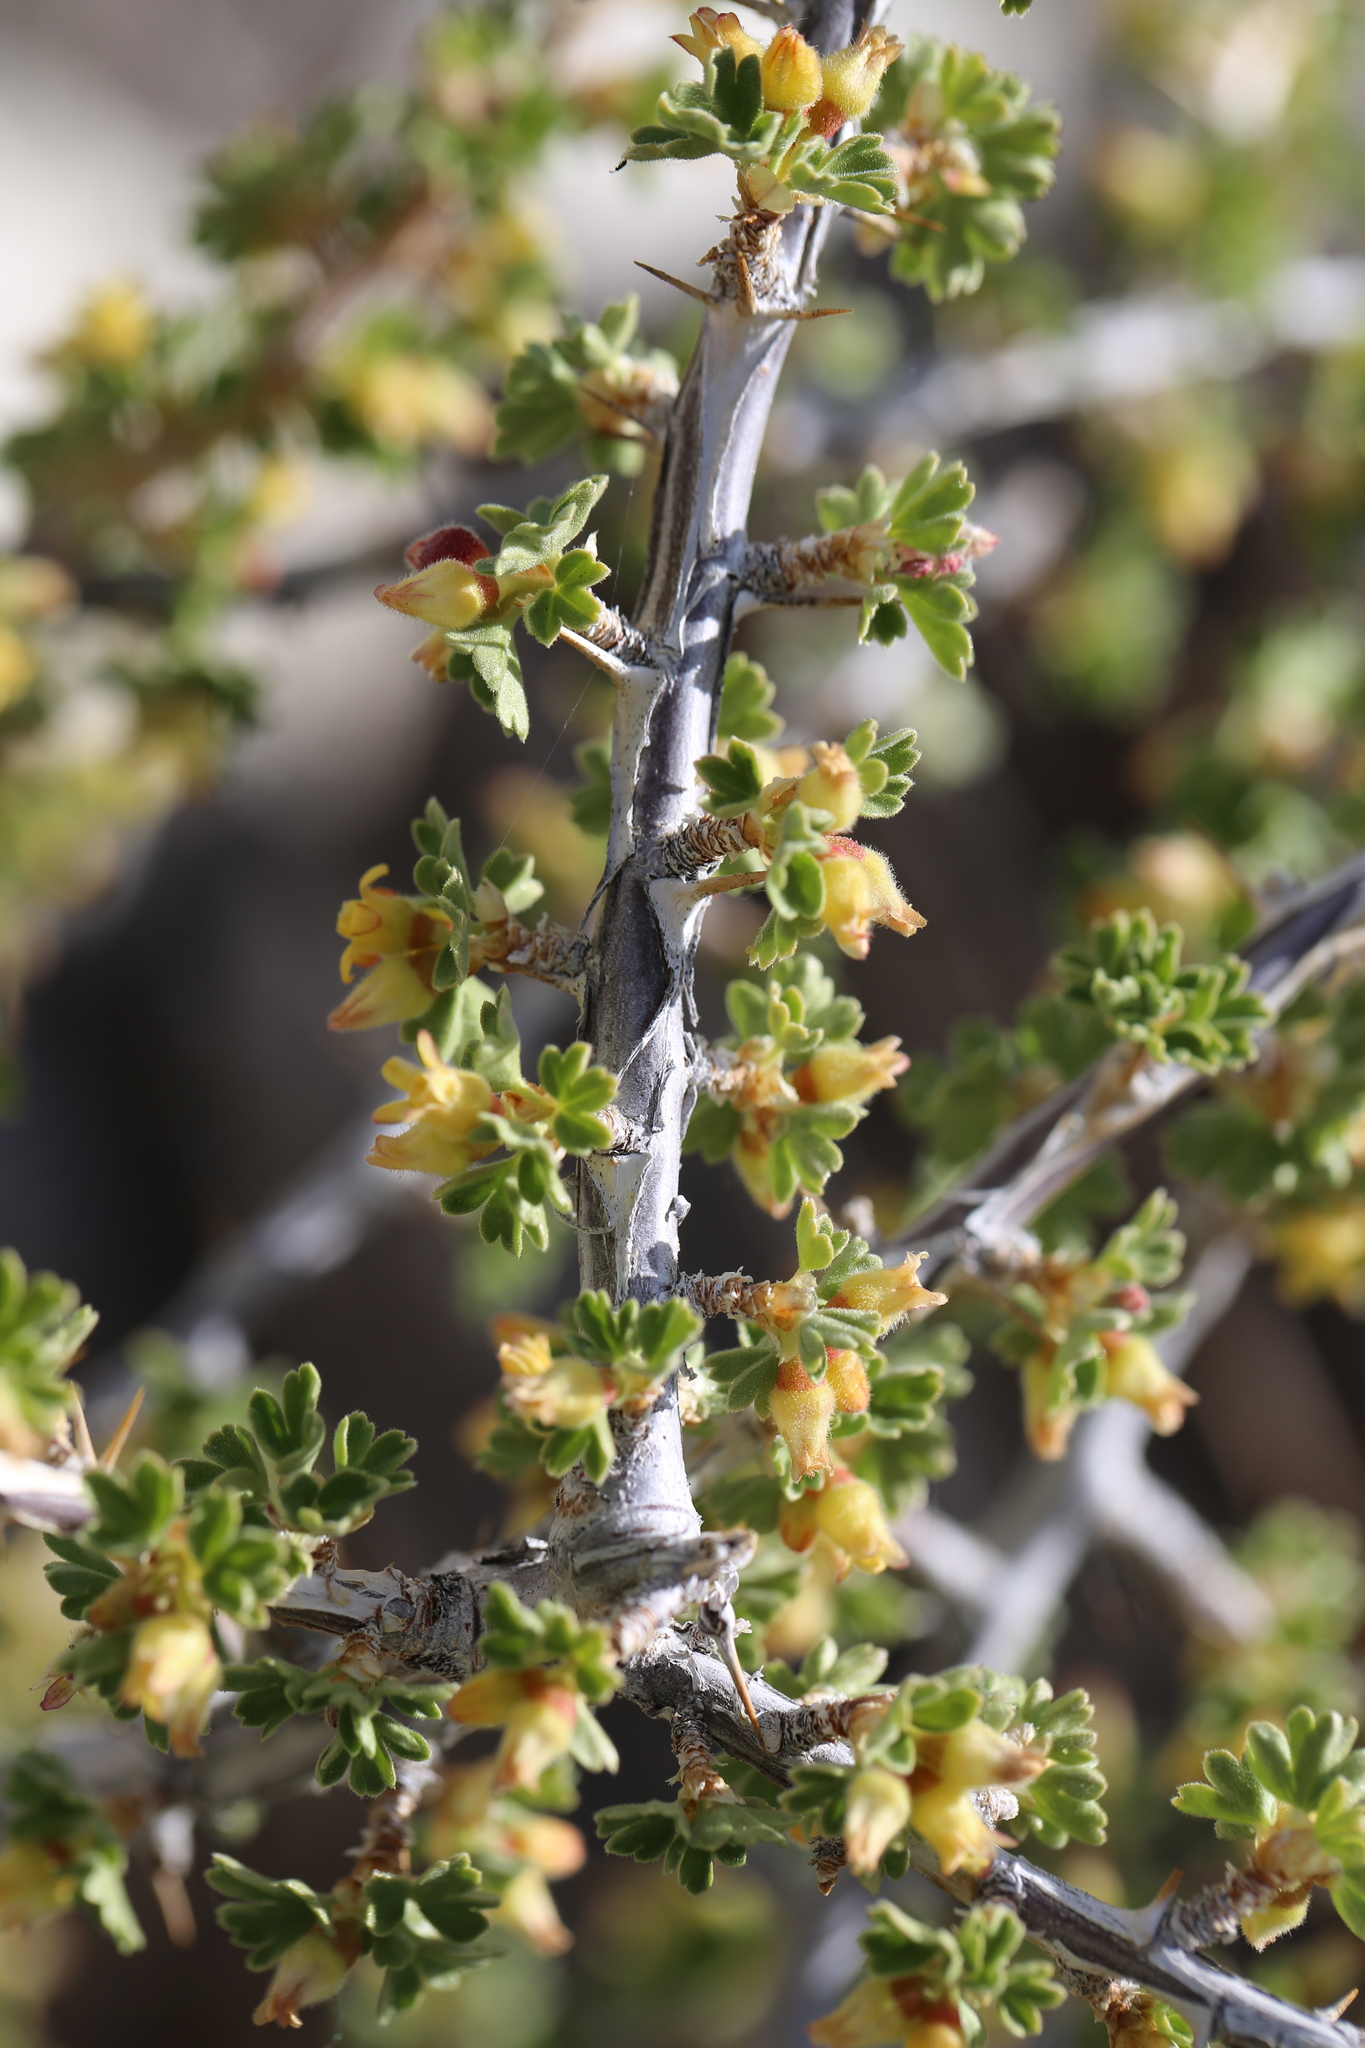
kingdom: Plantae
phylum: Tracheophyta
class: Magnoliopsida
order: Saxifragales
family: Grossulariaceae
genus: Ribes
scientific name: Ribes velutinum
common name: Desert gooseberry
